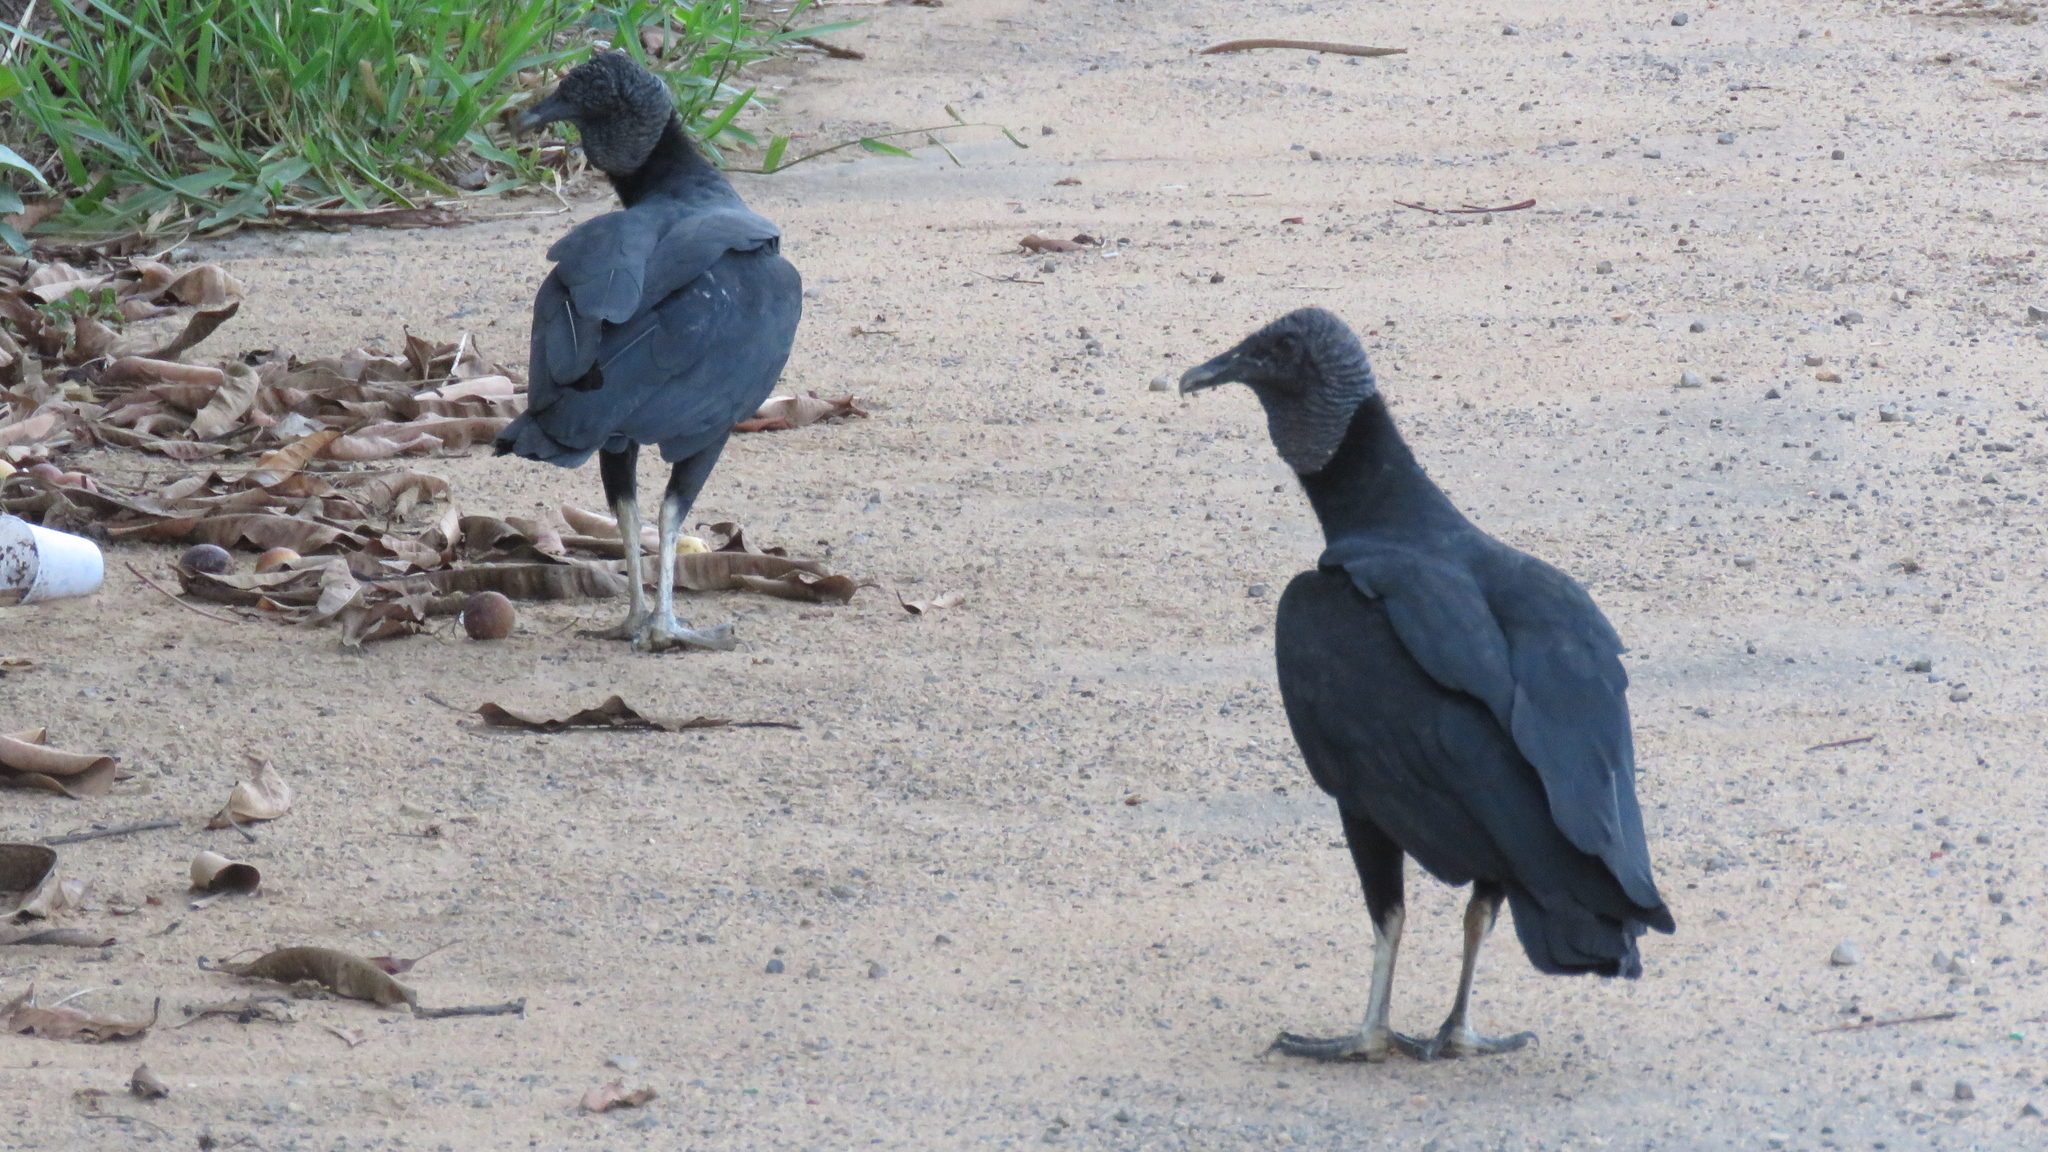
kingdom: Animalia
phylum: Chordata
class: Aves
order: Accipitriformes
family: Cathartidae
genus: Coragyps
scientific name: Coragyps atratus
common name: Black vulture
